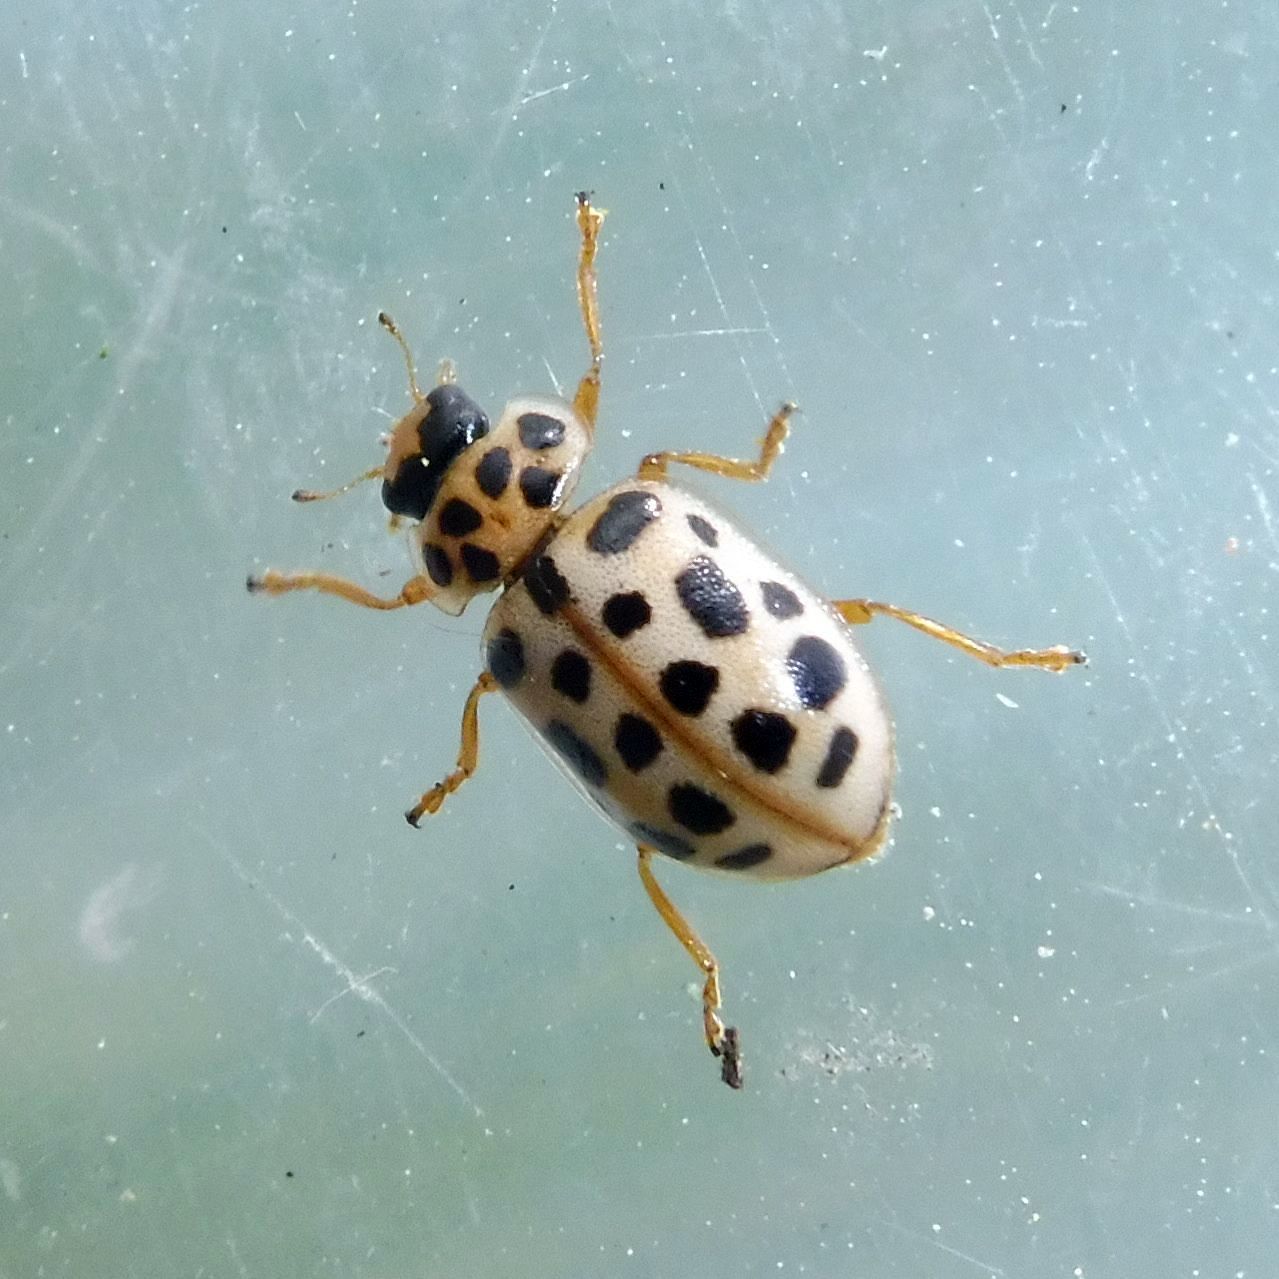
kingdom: Animalia
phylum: Arthropoda
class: Insecta
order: Coleoptera
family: Coccinellidae
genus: Anisosticta
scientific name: Anisosticta novemdecimpunctata
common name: Water ladybird
